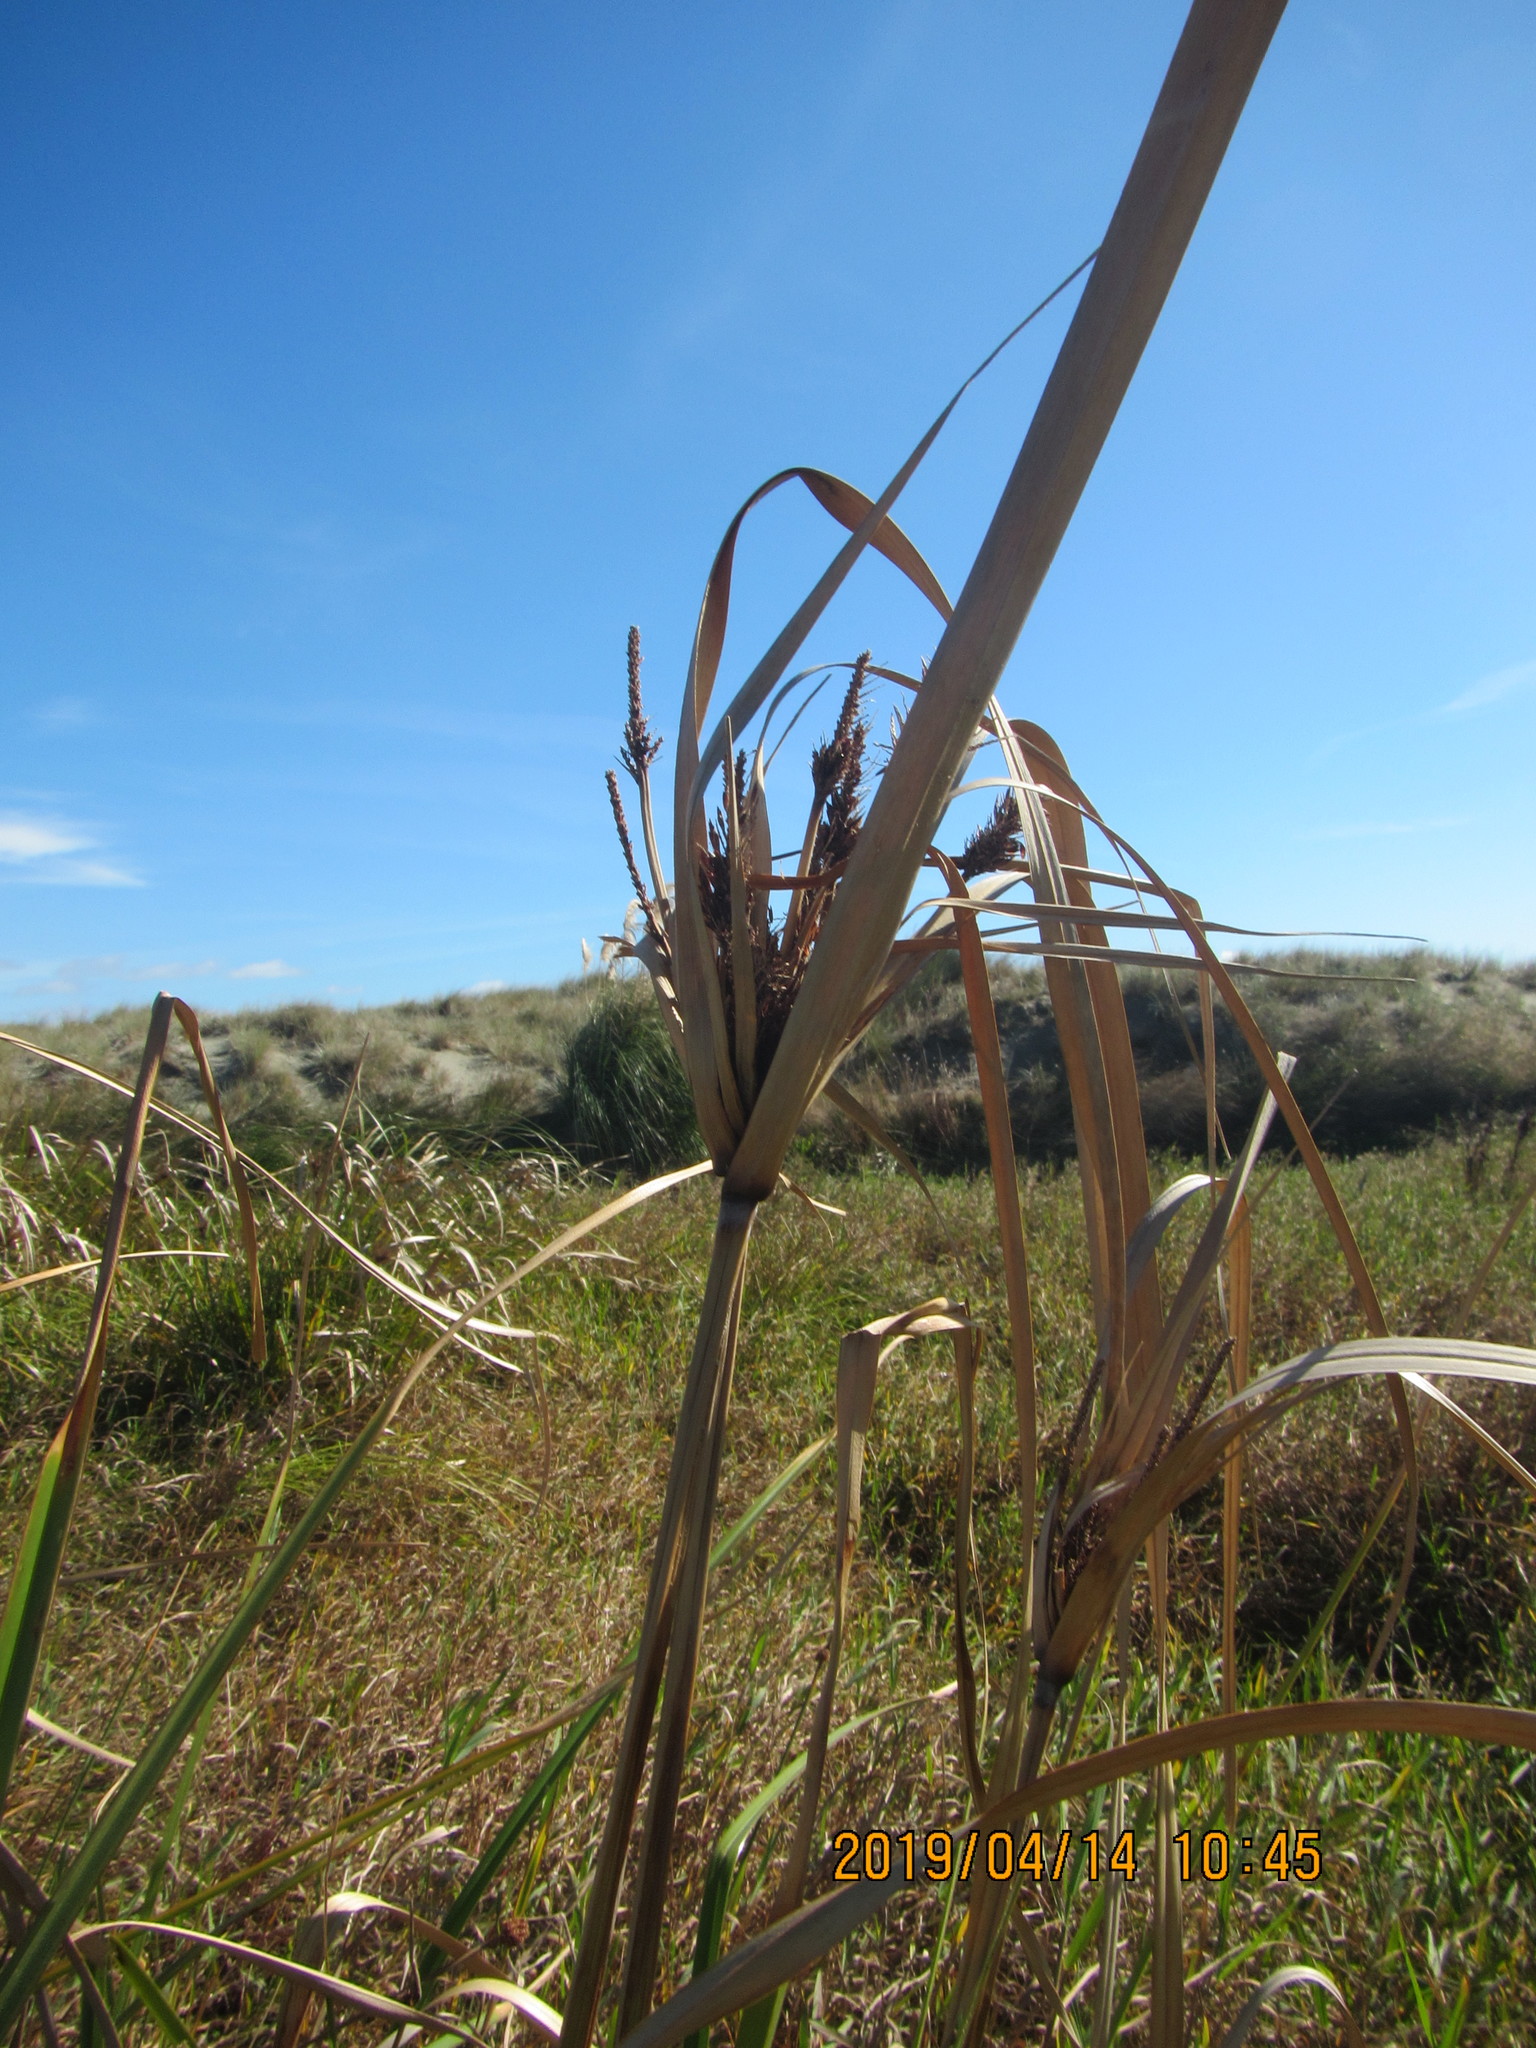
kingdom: Plantae
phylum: Tracheophyta
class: Liliopsida
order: Poales
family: Cyperaceae
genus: Cyperus
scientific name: Cyperus ustulatus
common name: Giant umbrella-sedge
